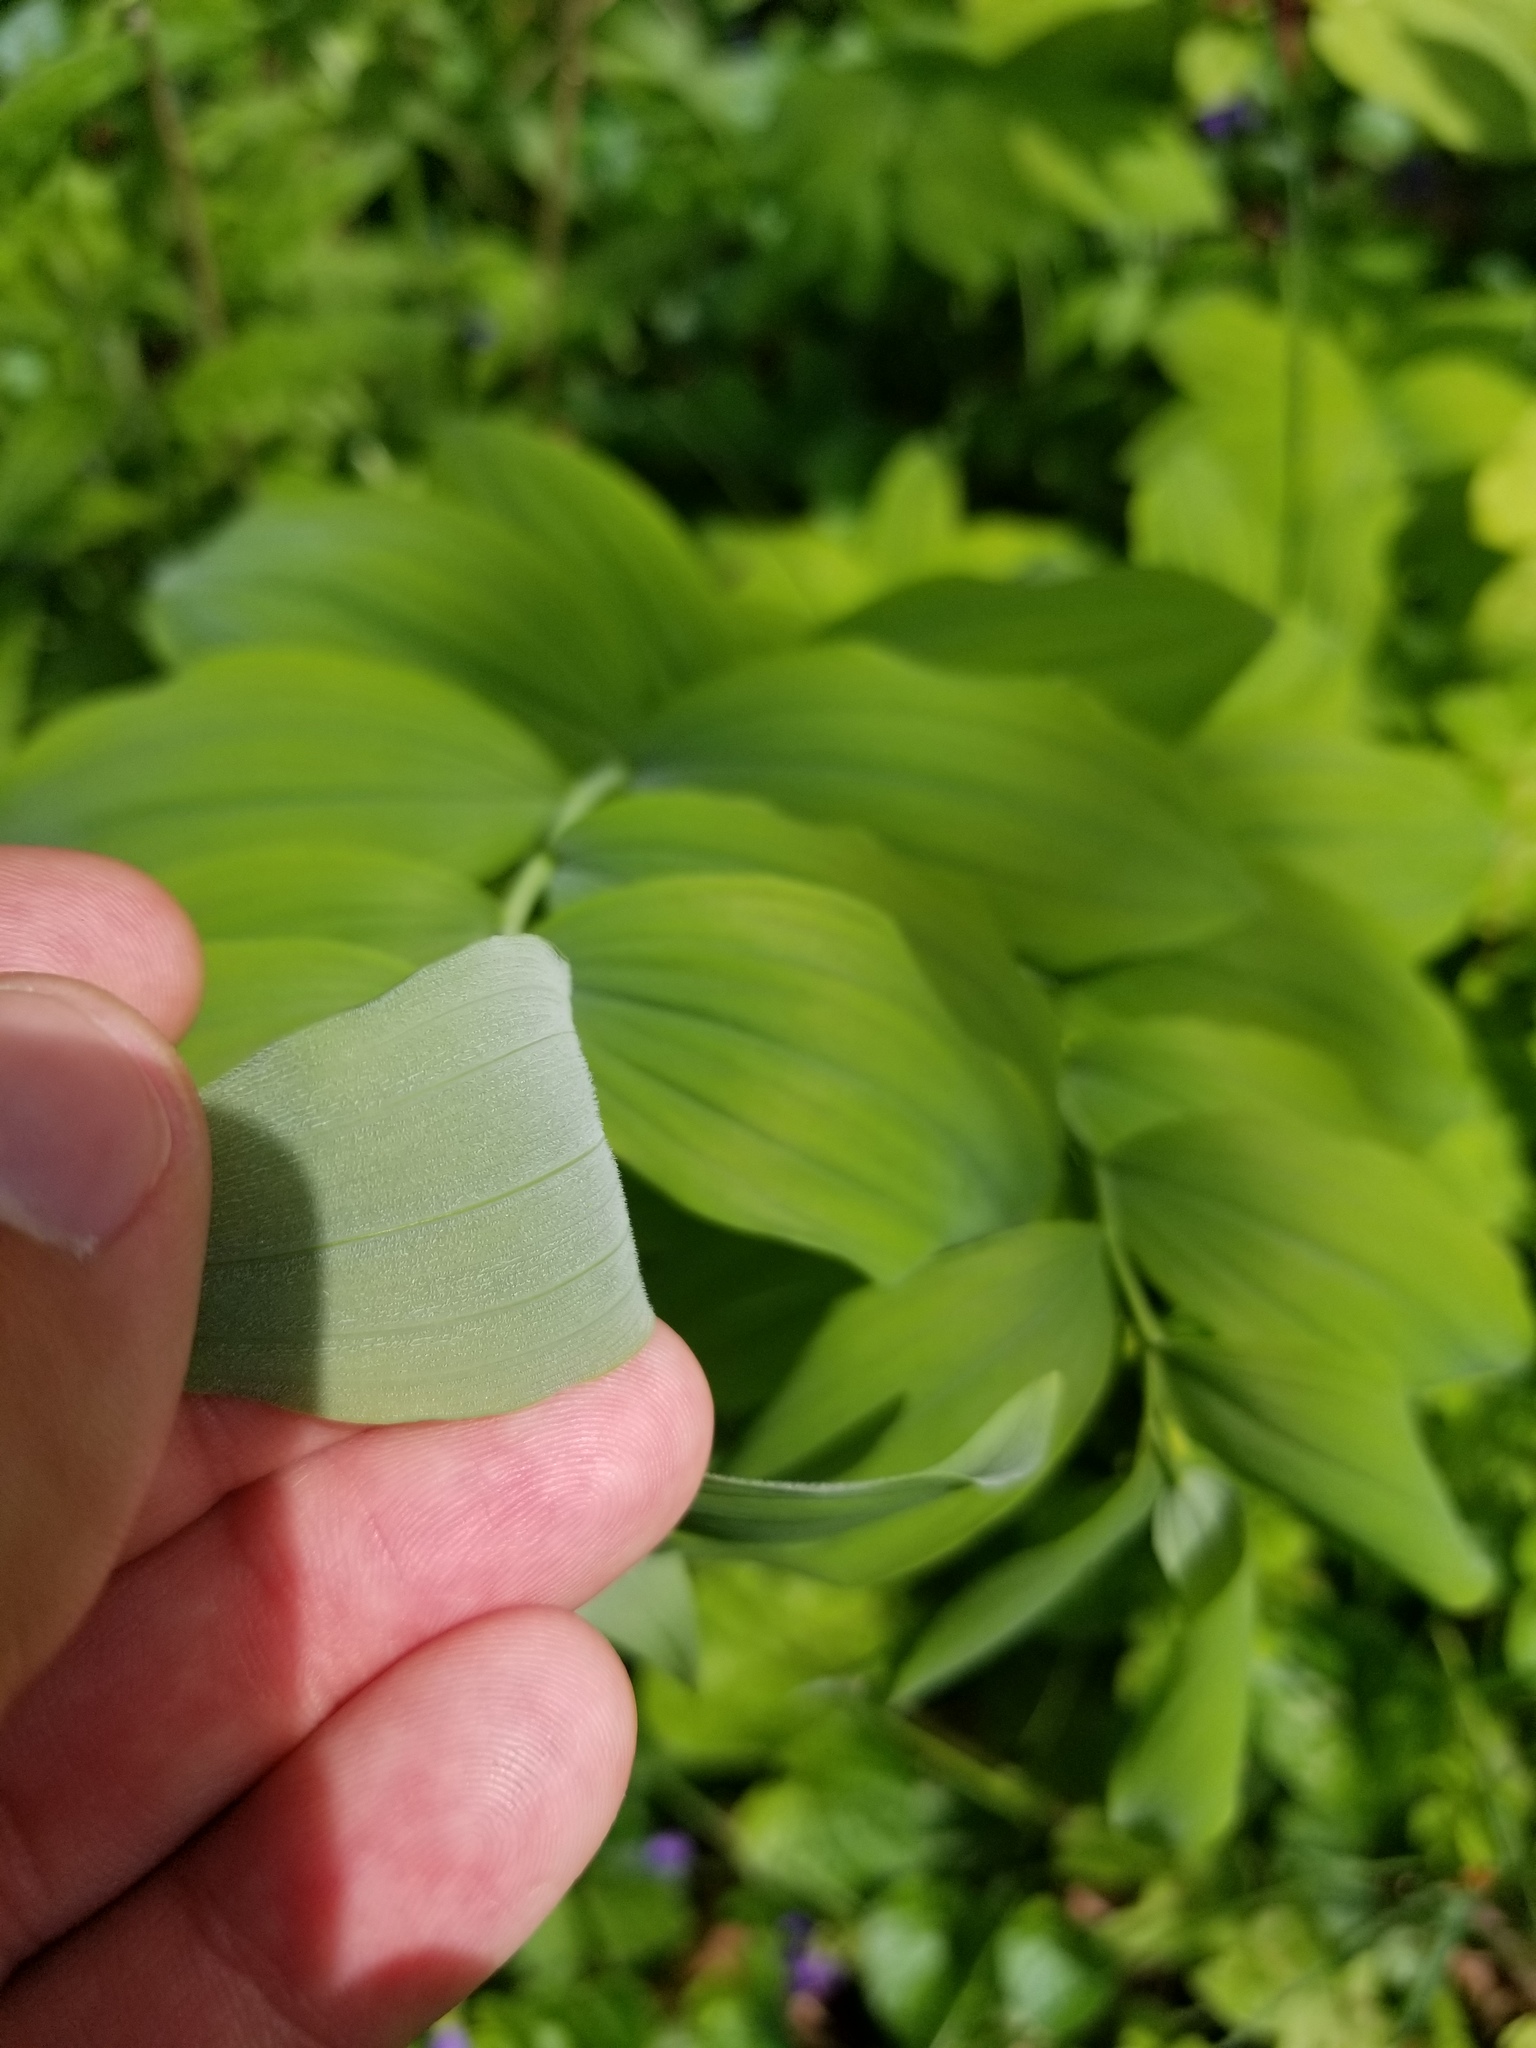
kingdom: Plantae
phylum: Tracheophyta
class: Liliopsida
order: Asparagales
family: Asparagaceae
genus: Polygonatum
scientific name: Polygonatum pubescens
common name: Downy solomon's seal
